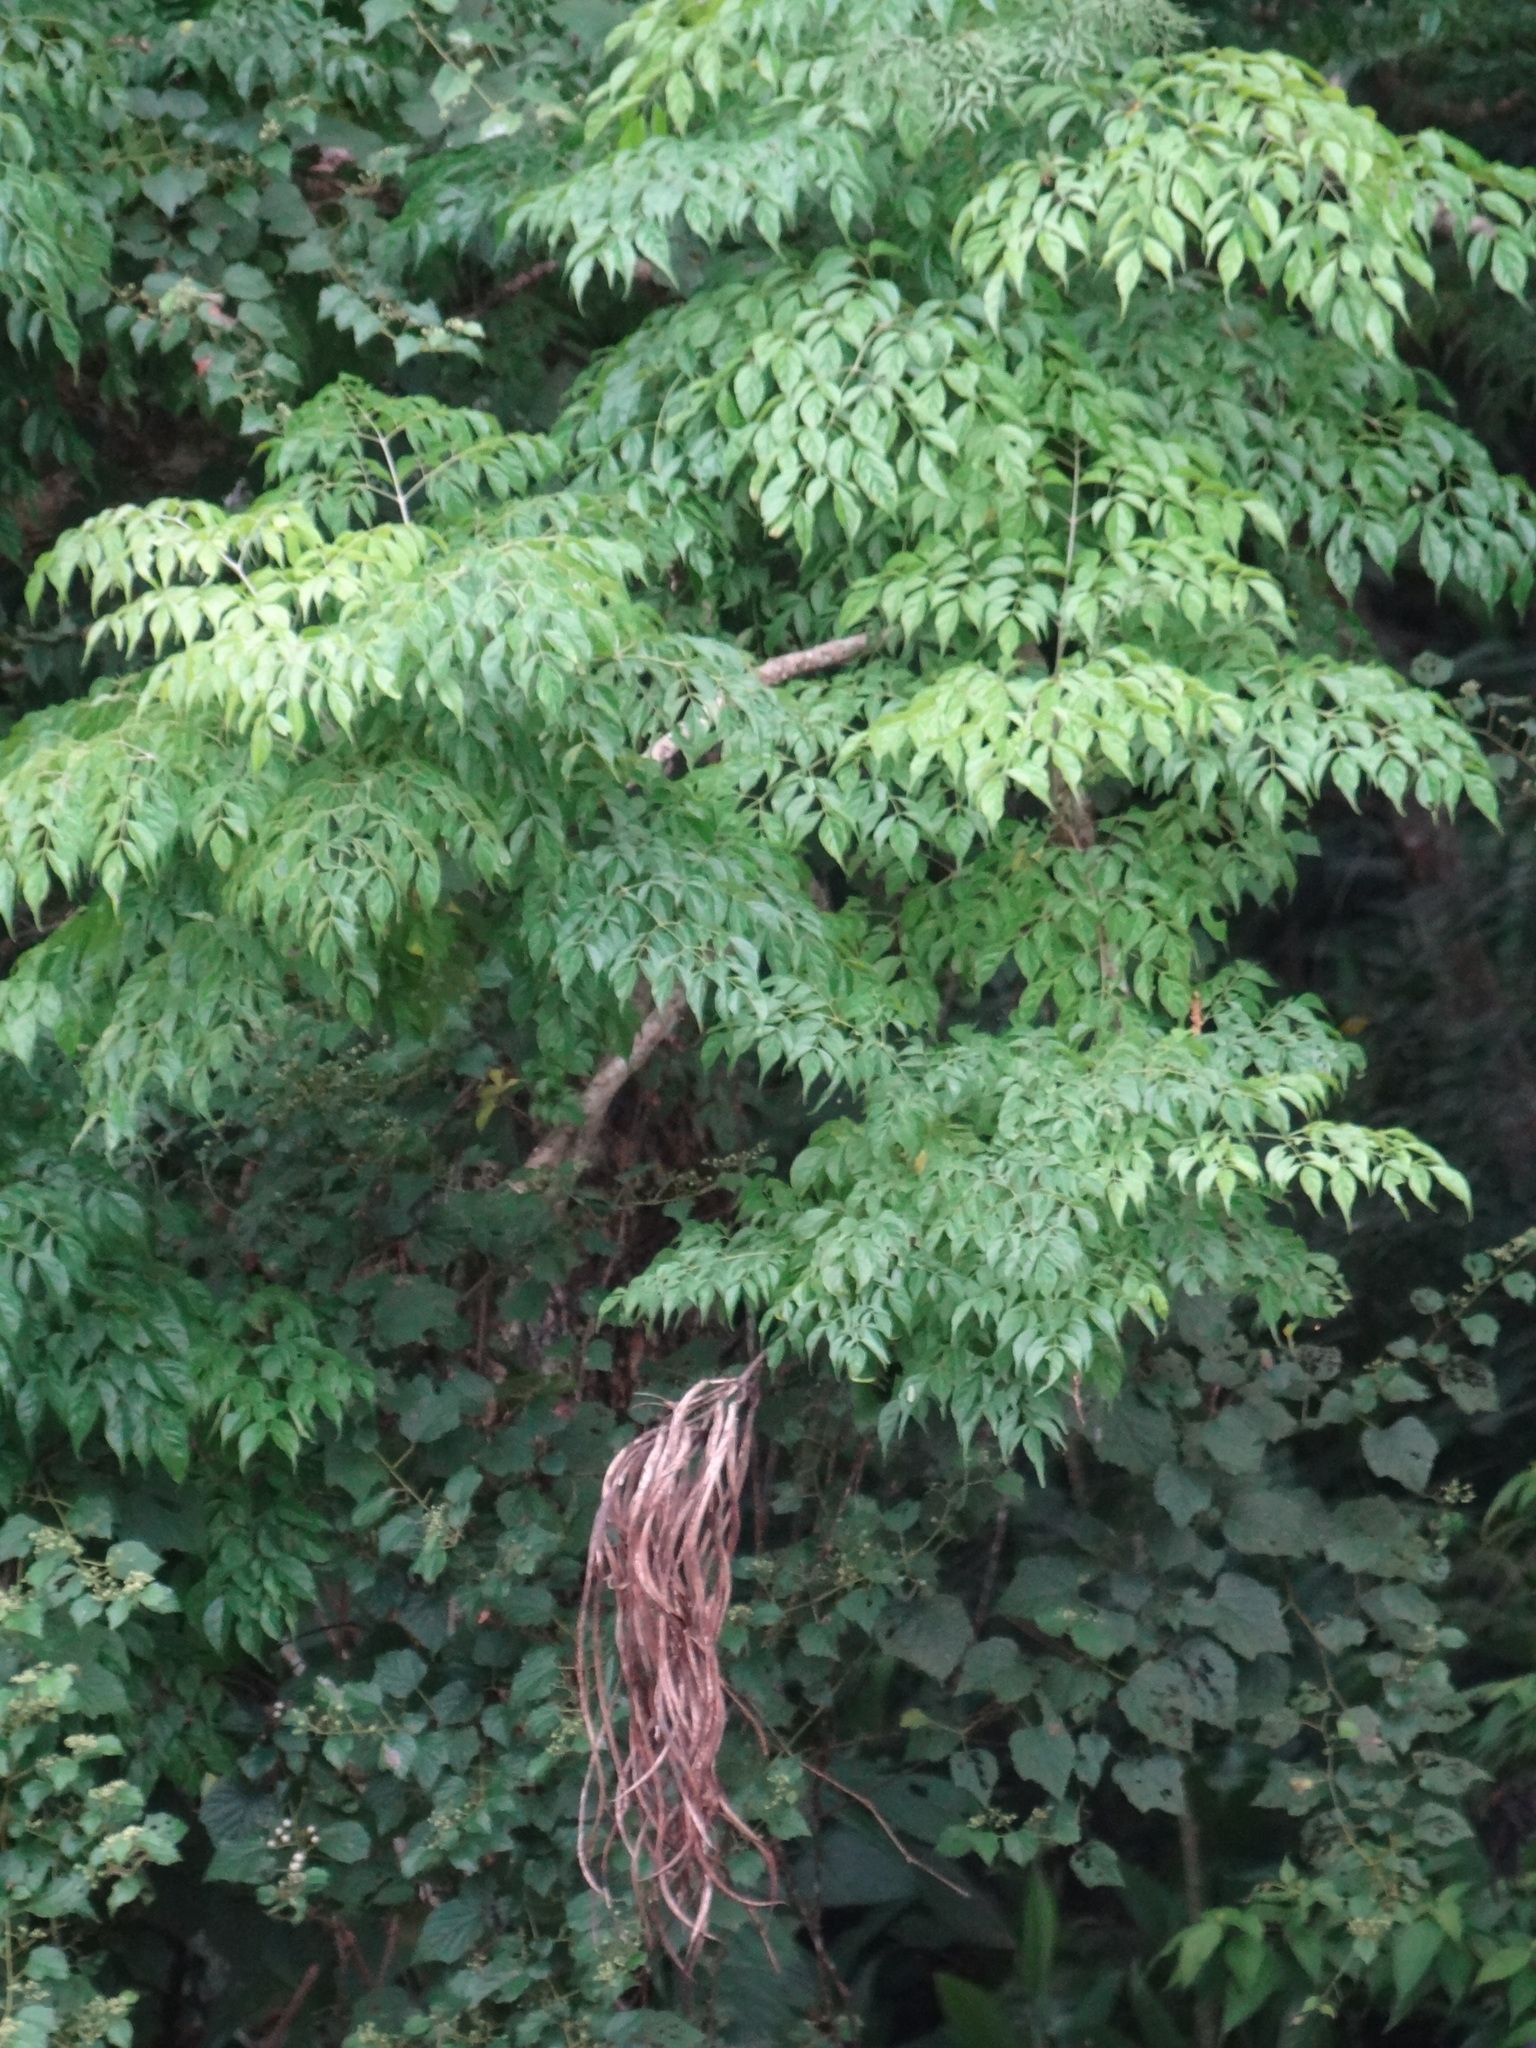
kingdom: Plantae
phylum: Tracheophyta
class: Magnoliopsida
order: Lamiales
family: Bignoniaceae
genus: Radermachera
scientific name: Radermachera sinica
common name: China doll plant
